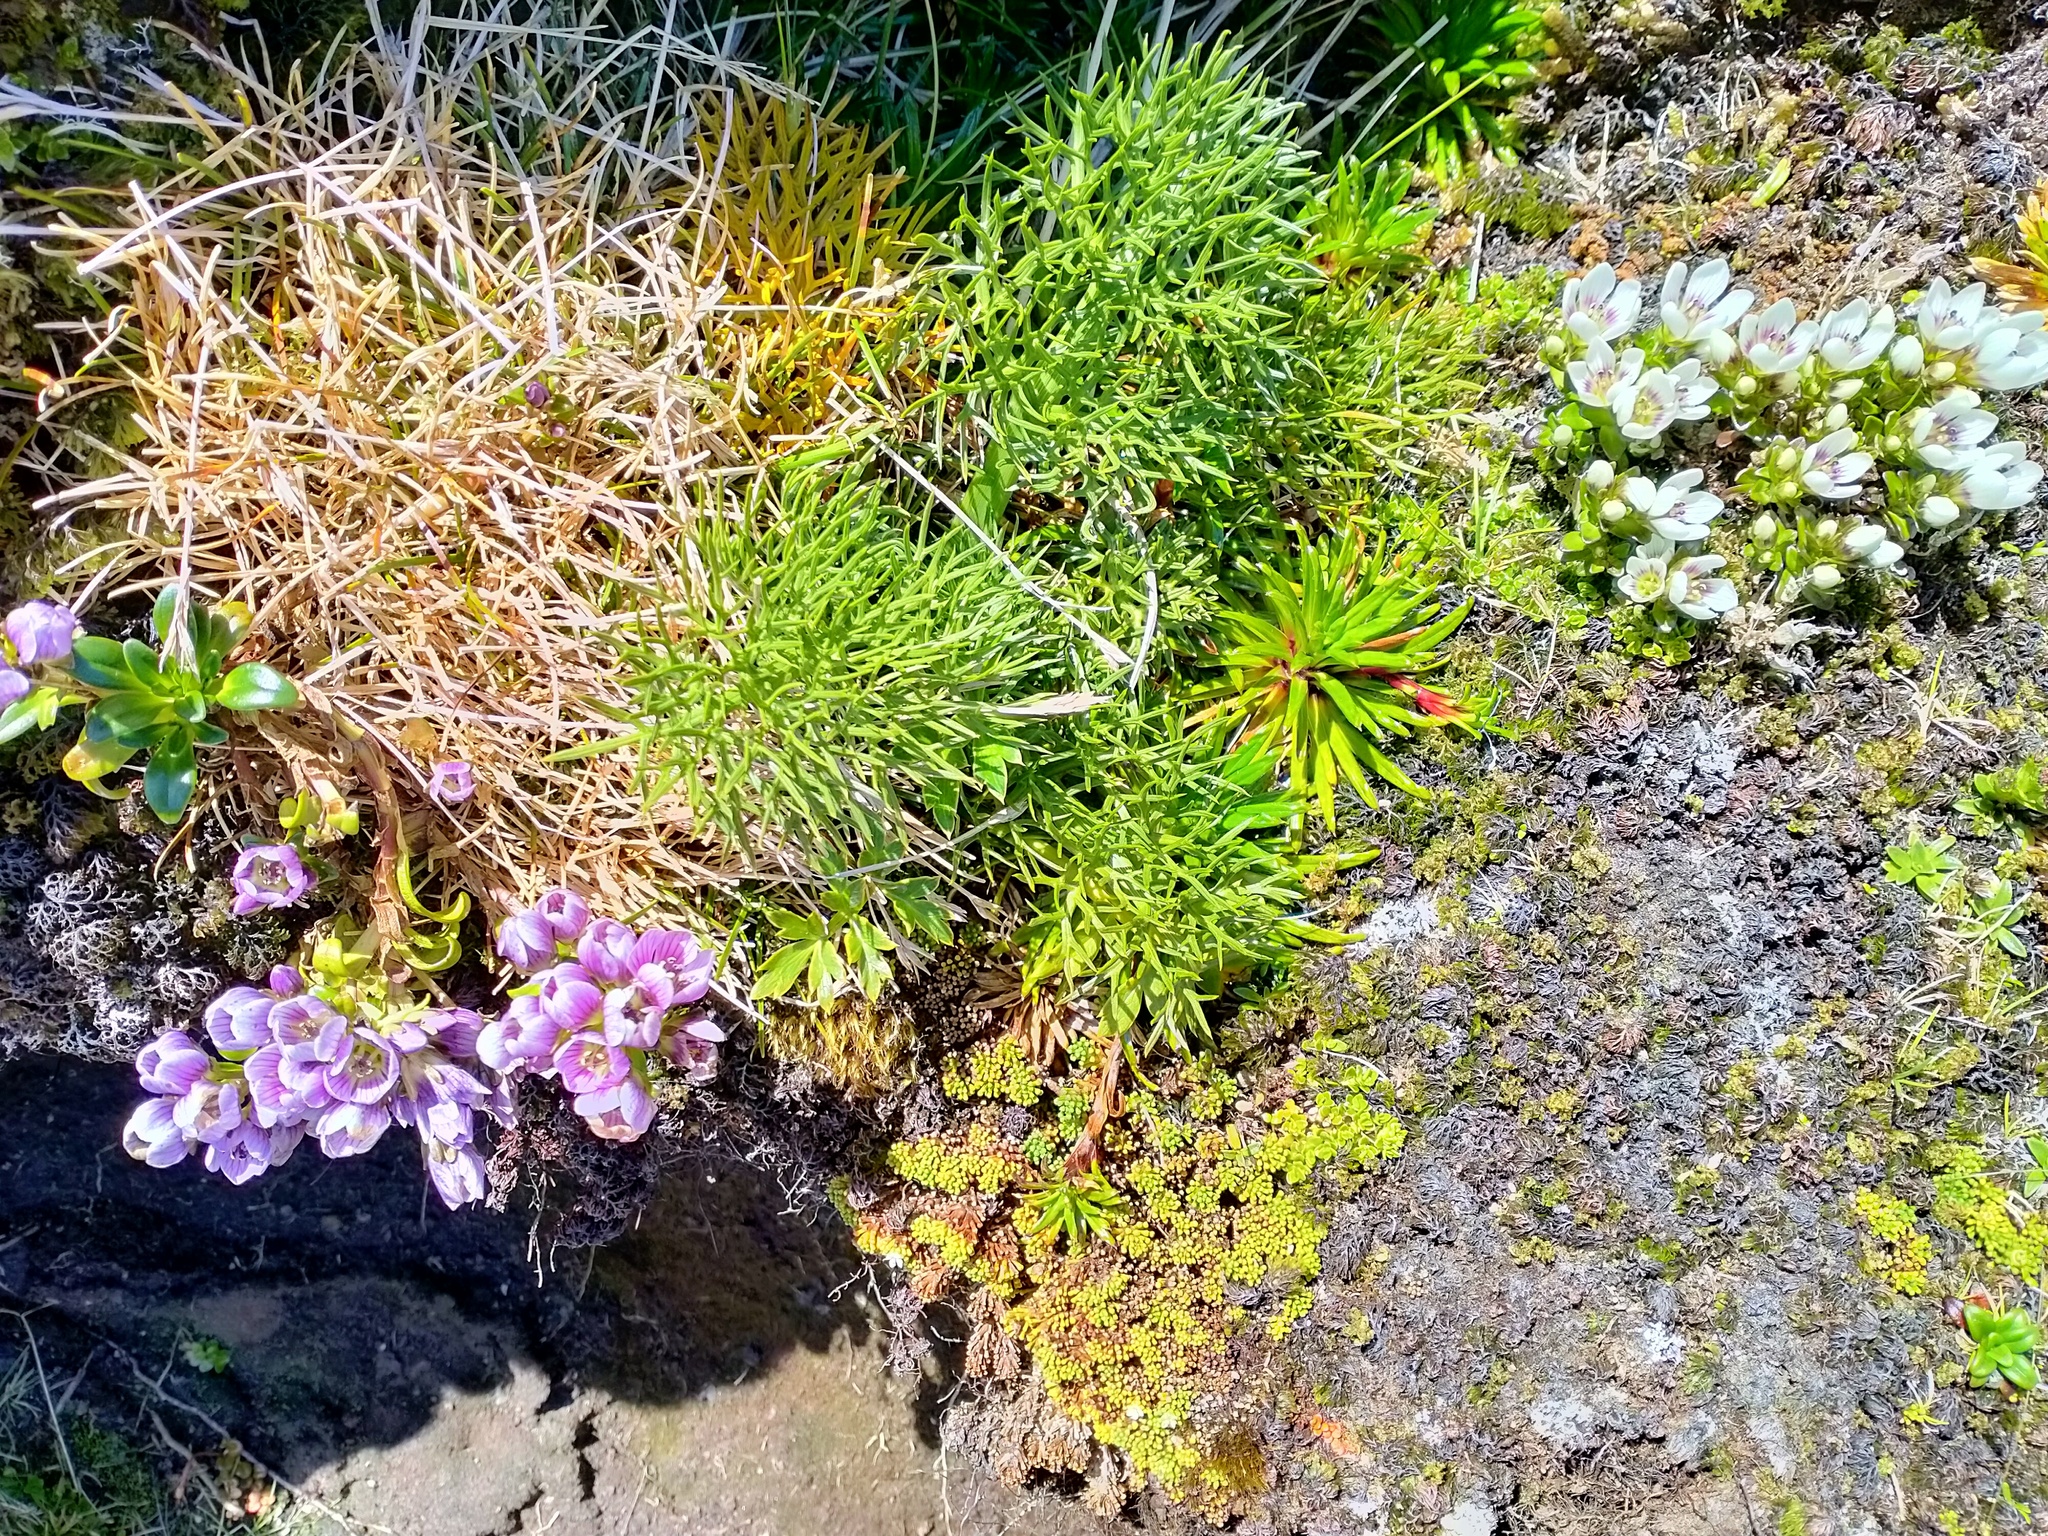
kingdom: Plantae
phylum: Tracheophyta
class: Magnoliopsida
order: Apiales
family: Apiaceae
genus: Anisotome
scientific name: Anisotome antipoda
